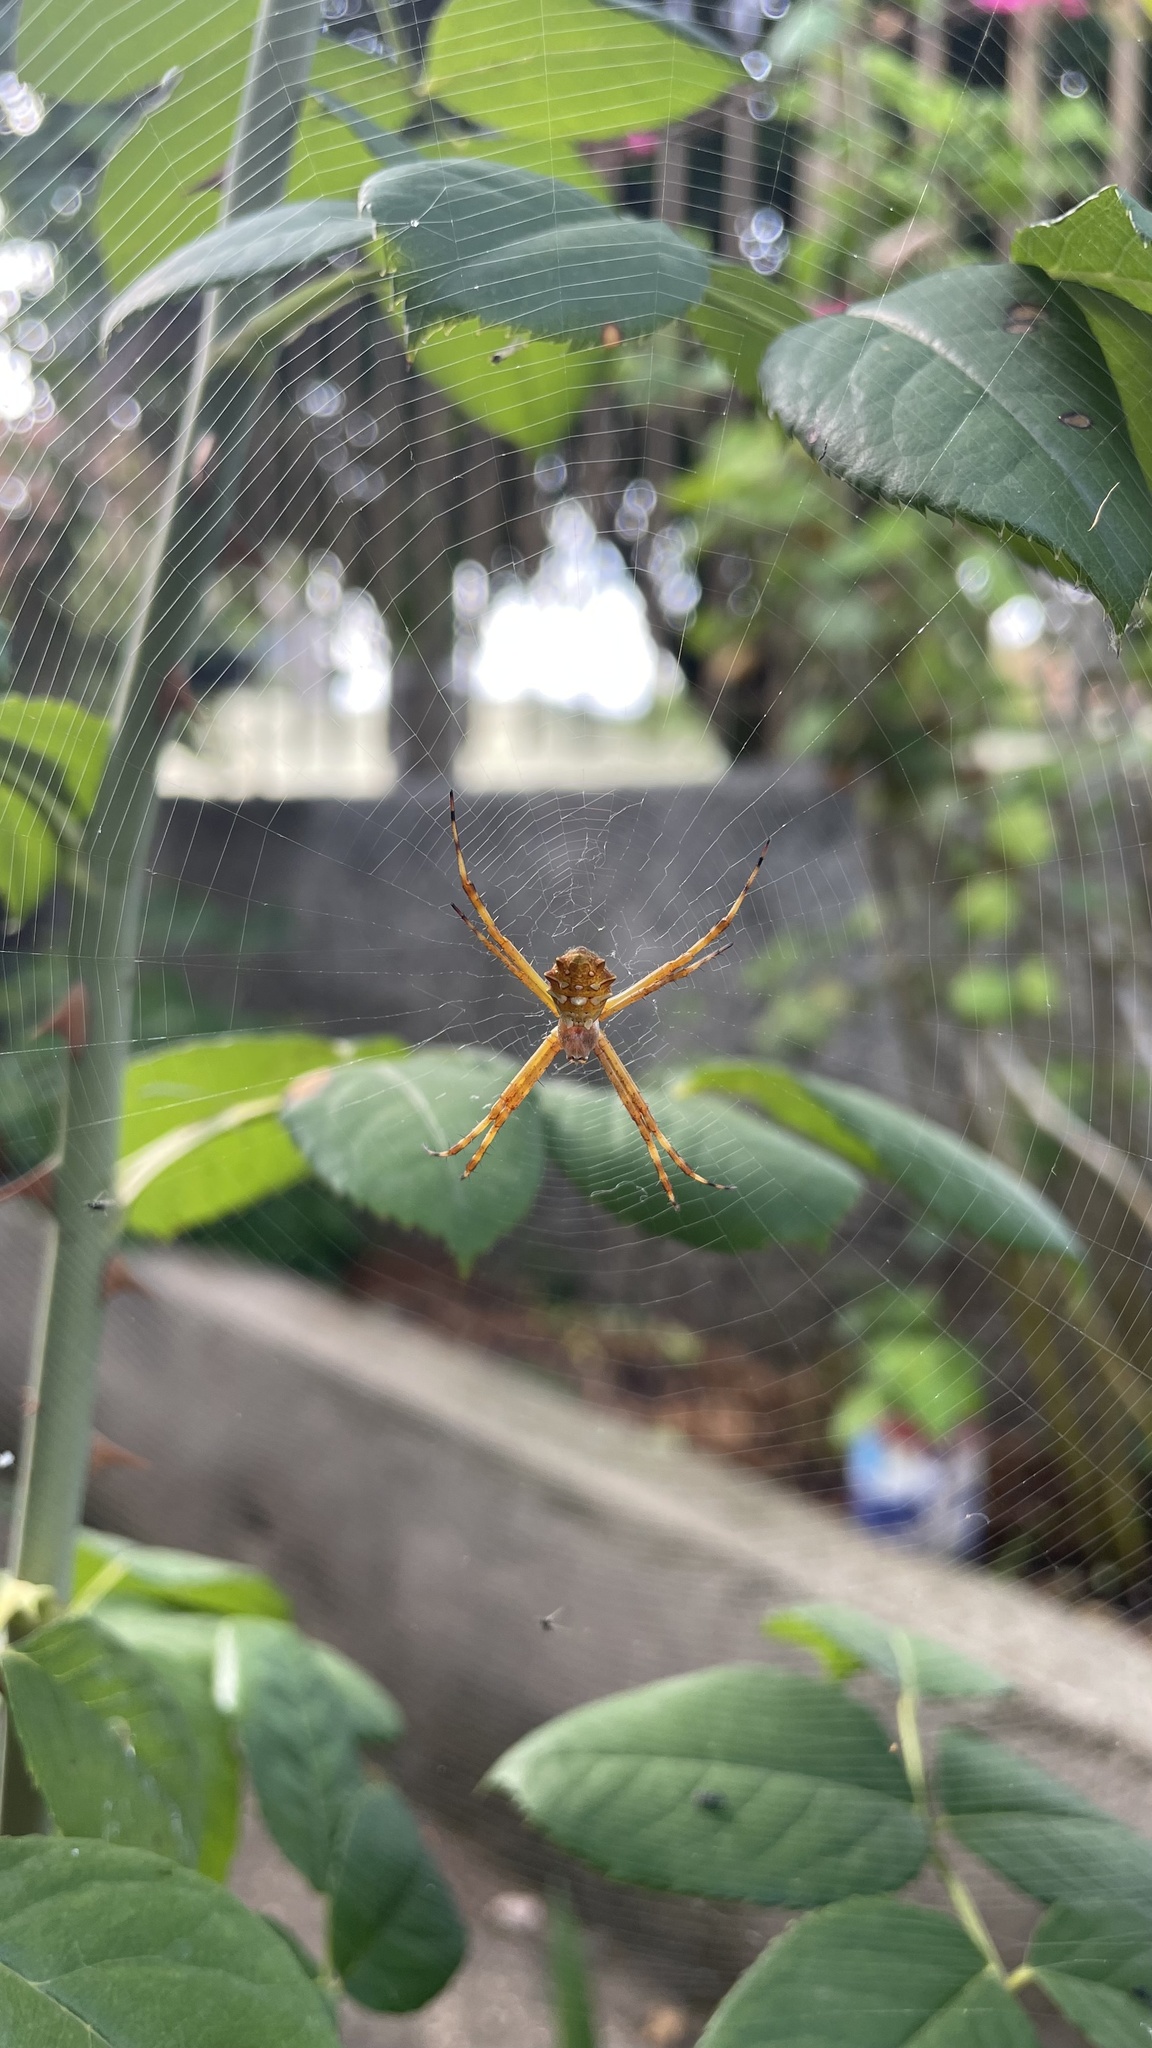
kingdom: Animalia
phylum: Arthropoda
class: Arachnida
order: Araneae
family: Araneidae
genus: Argiope
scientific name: Argiope argentata
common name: Orb weavers
